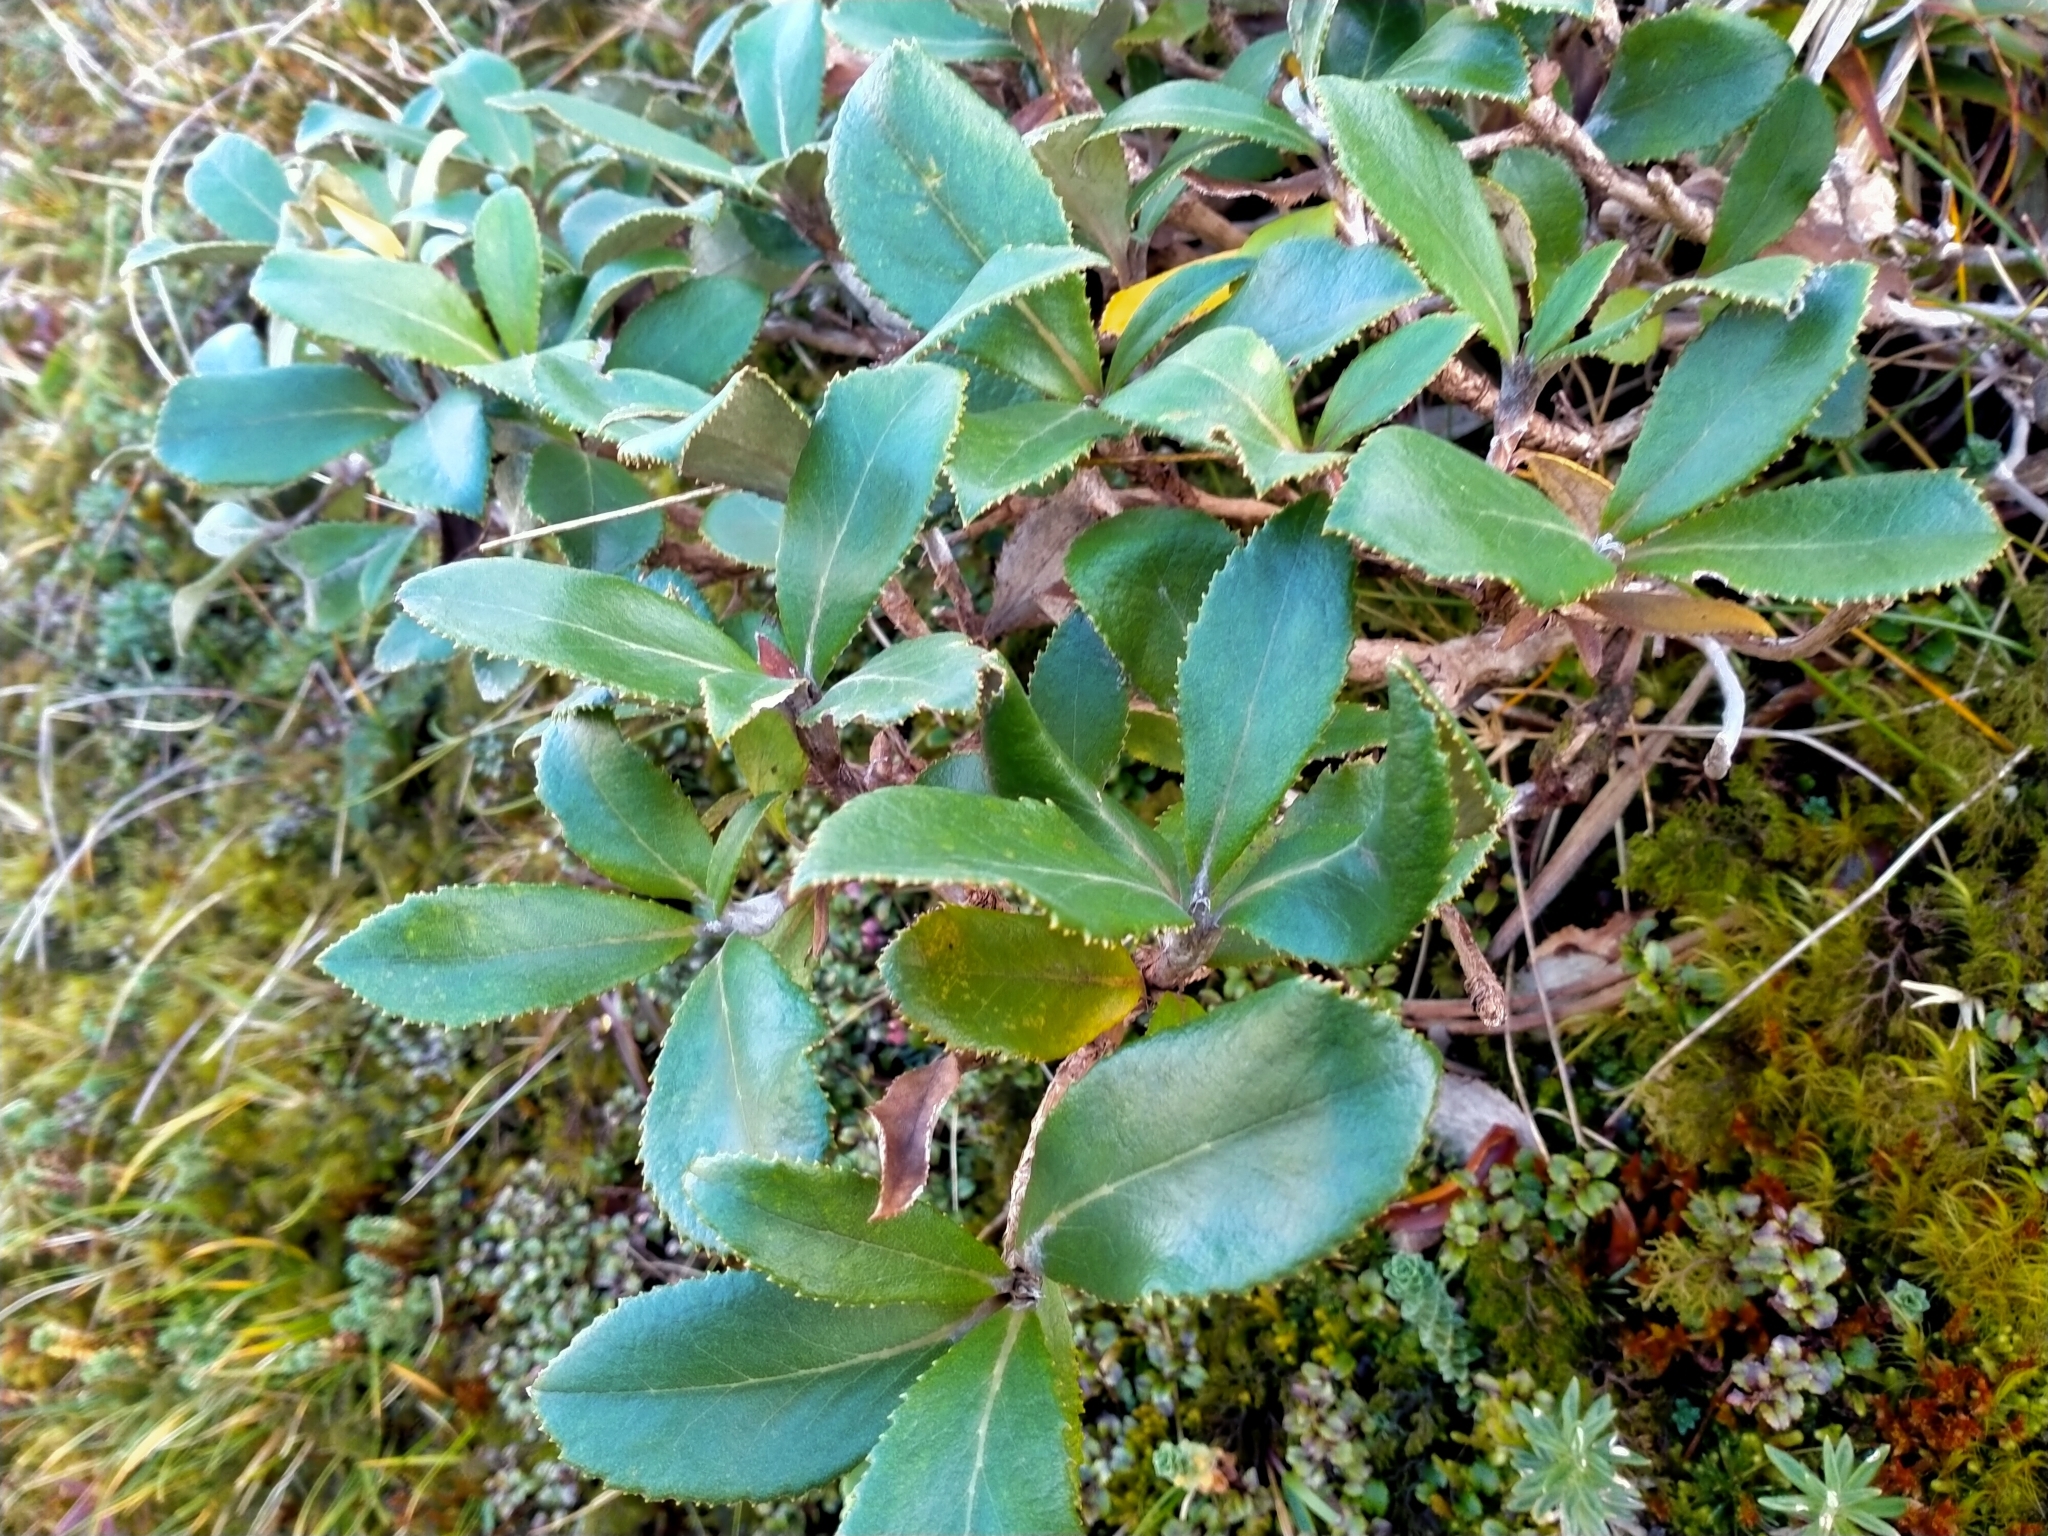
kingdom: Plantae
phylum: Tracheophyta
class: Magnoliopsida
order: Asterales
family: Asteraceae
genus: Macrolearia
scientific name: Macrolearia colensoi
